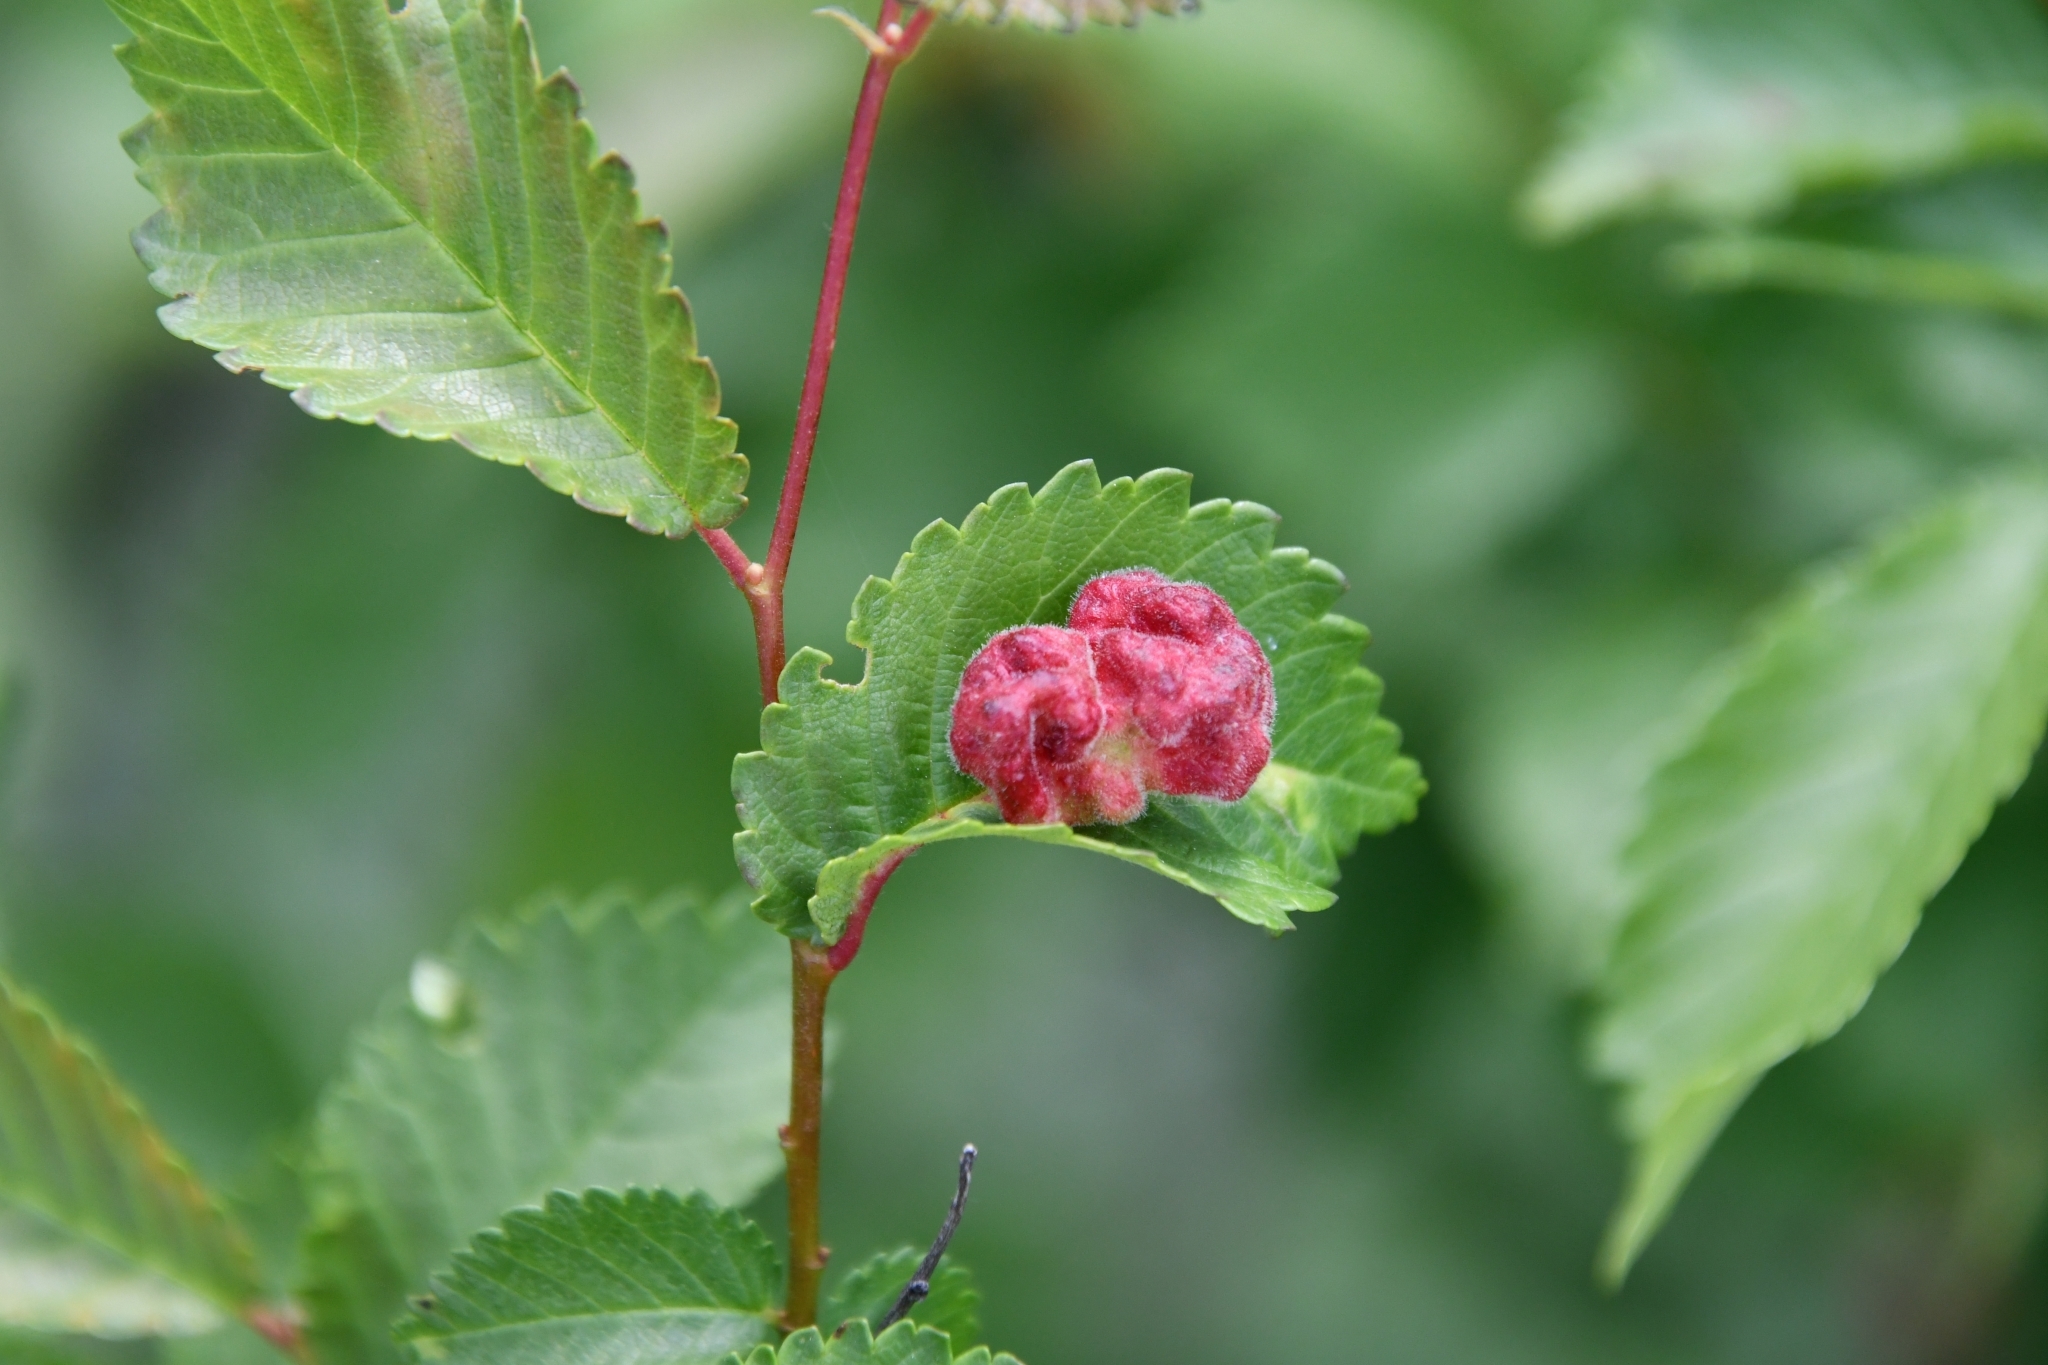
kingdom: Animalia
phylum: Arthropoda
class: Insecta
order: Hemiptera
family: Aphididae
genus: Tetraneura
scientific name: Tetraneura caerulescens
